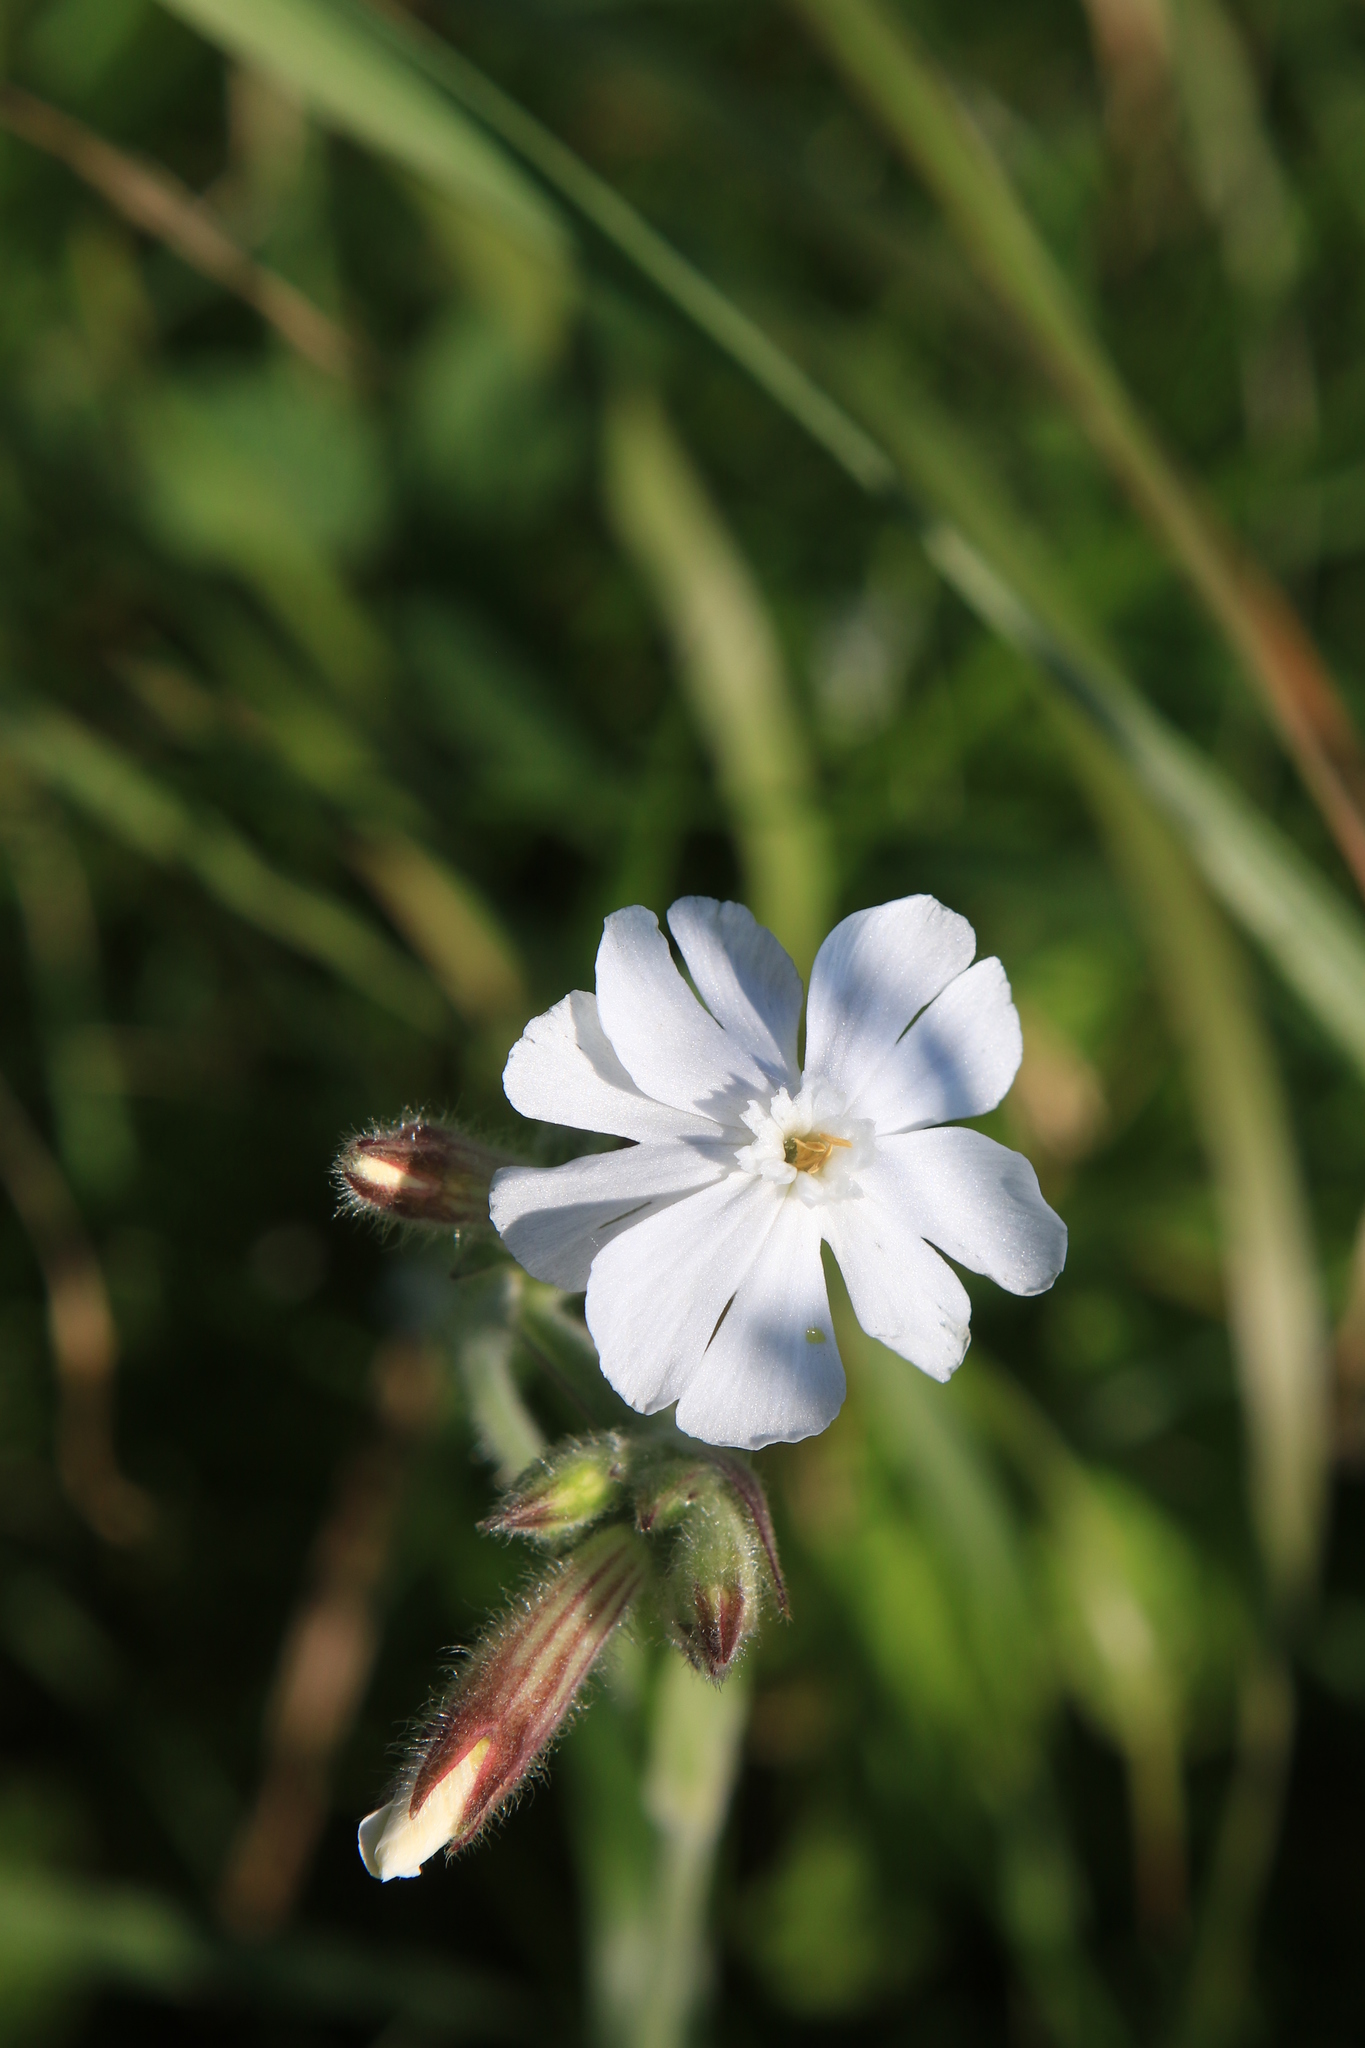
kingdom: Plantae
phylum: Tracheophyta
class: Magnoliopsida
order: Caryophyllales
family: Caryophyllaceae
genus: Silene
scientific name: Silene latifolia
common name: White campion
